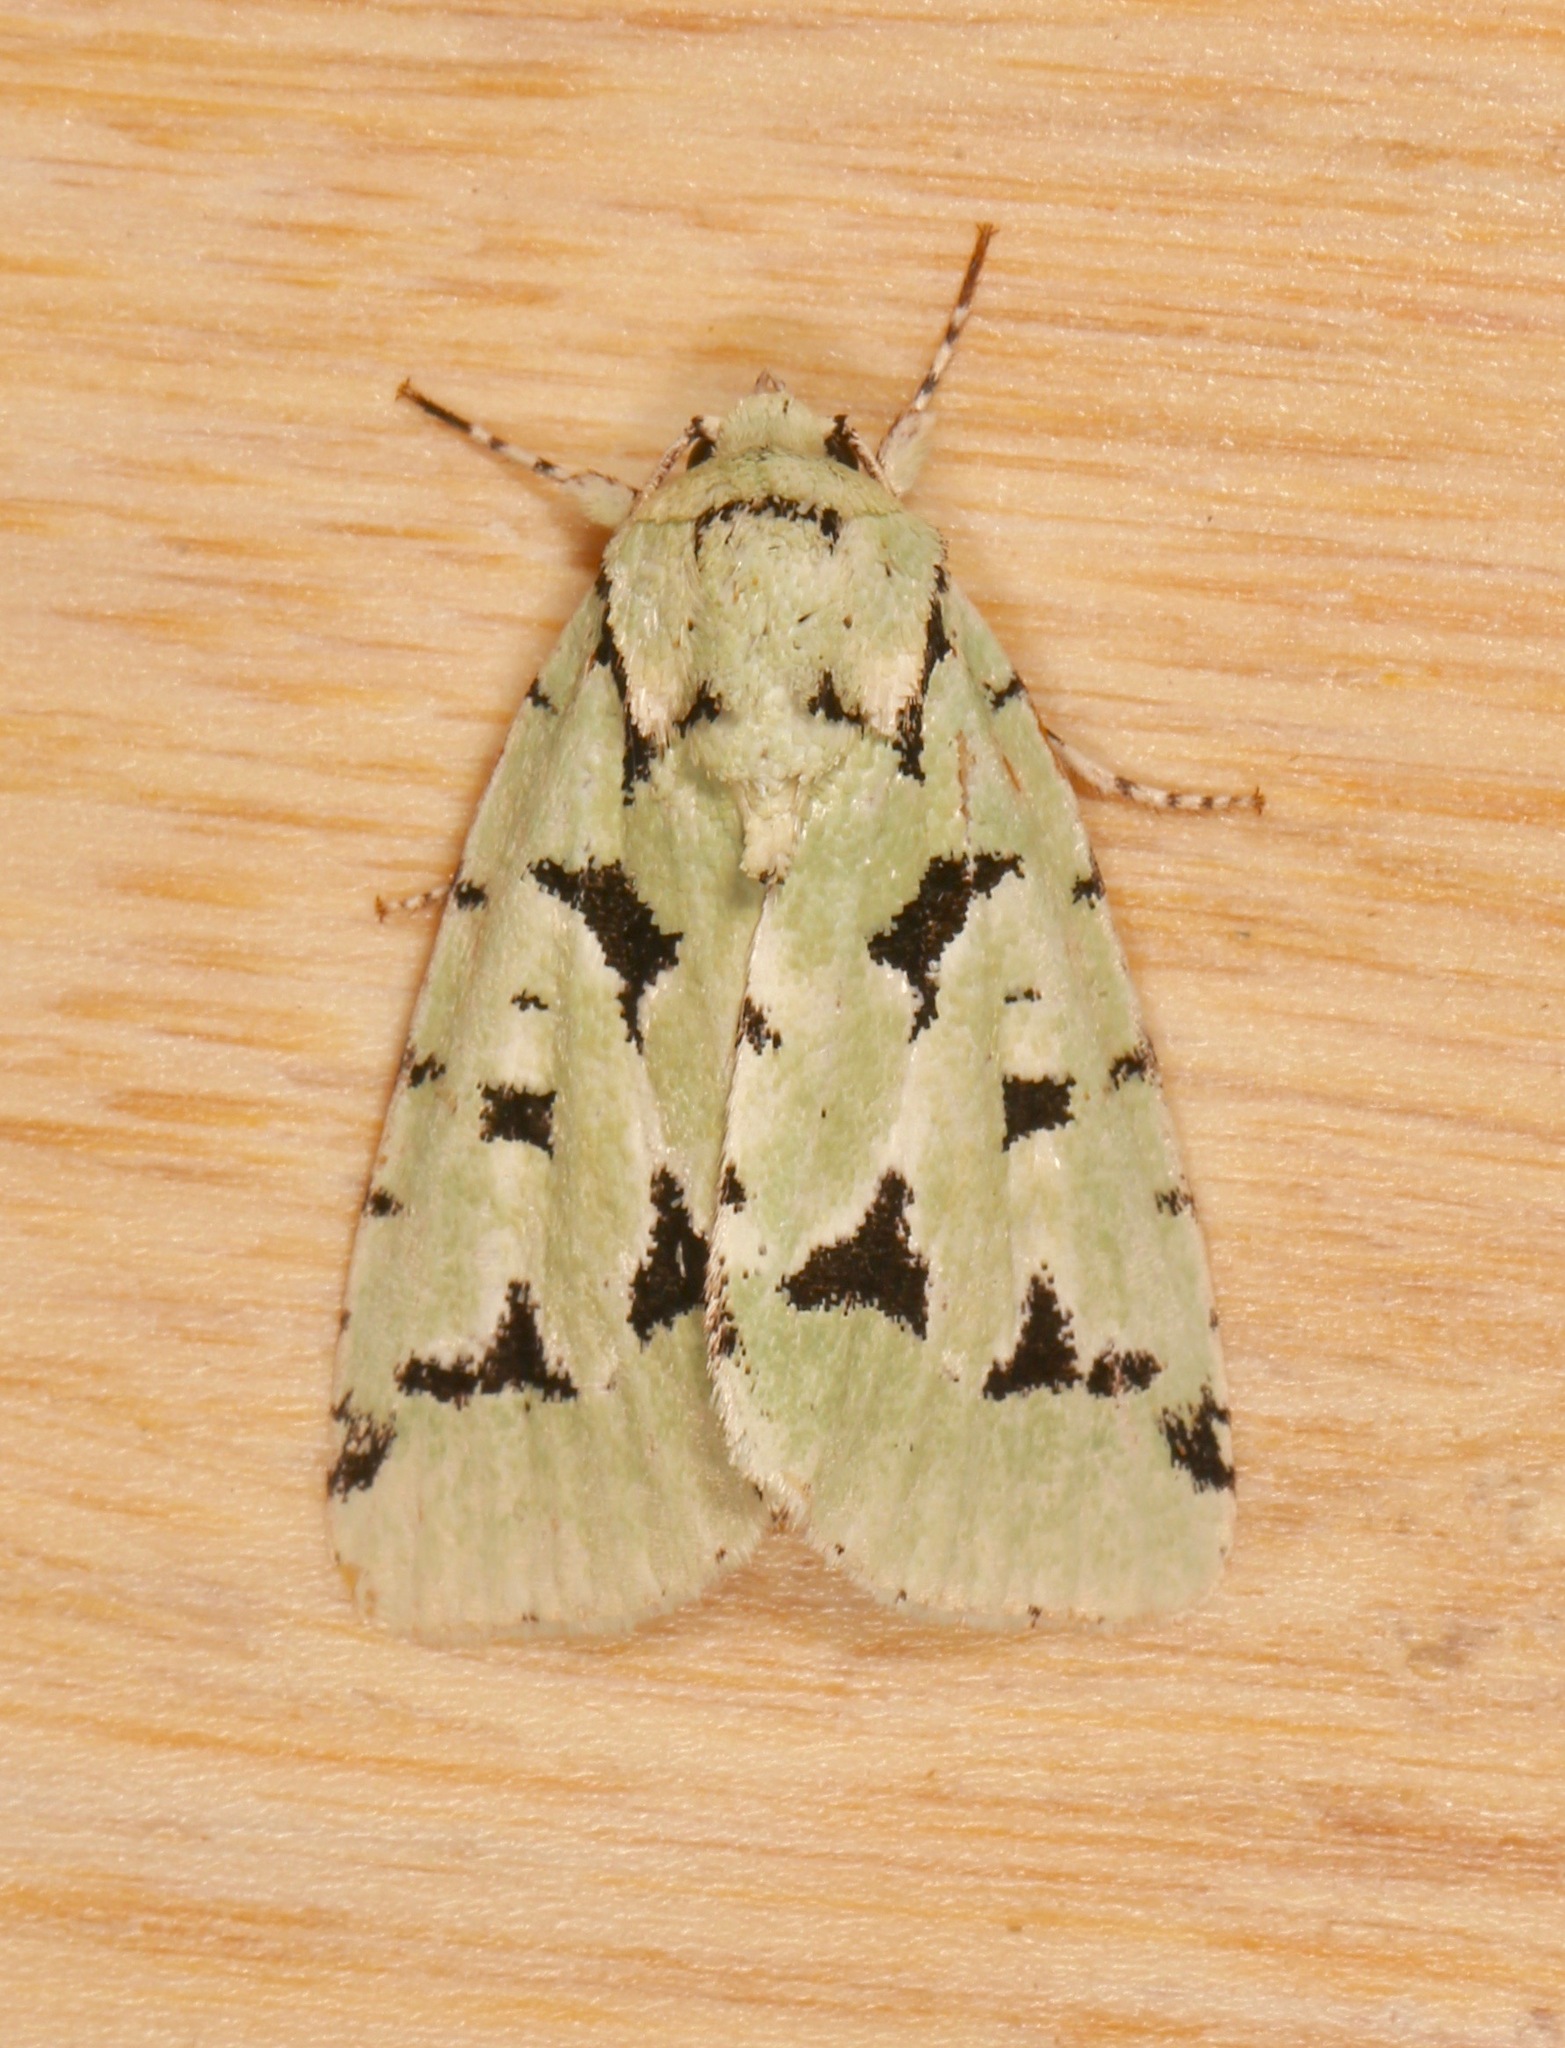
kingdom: Animalia
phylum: Arthropoda
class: Insecta
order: Lepidoptera
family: Noctuidae
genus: Acronicta
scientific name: Acronicta fallax
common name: Green marvel
